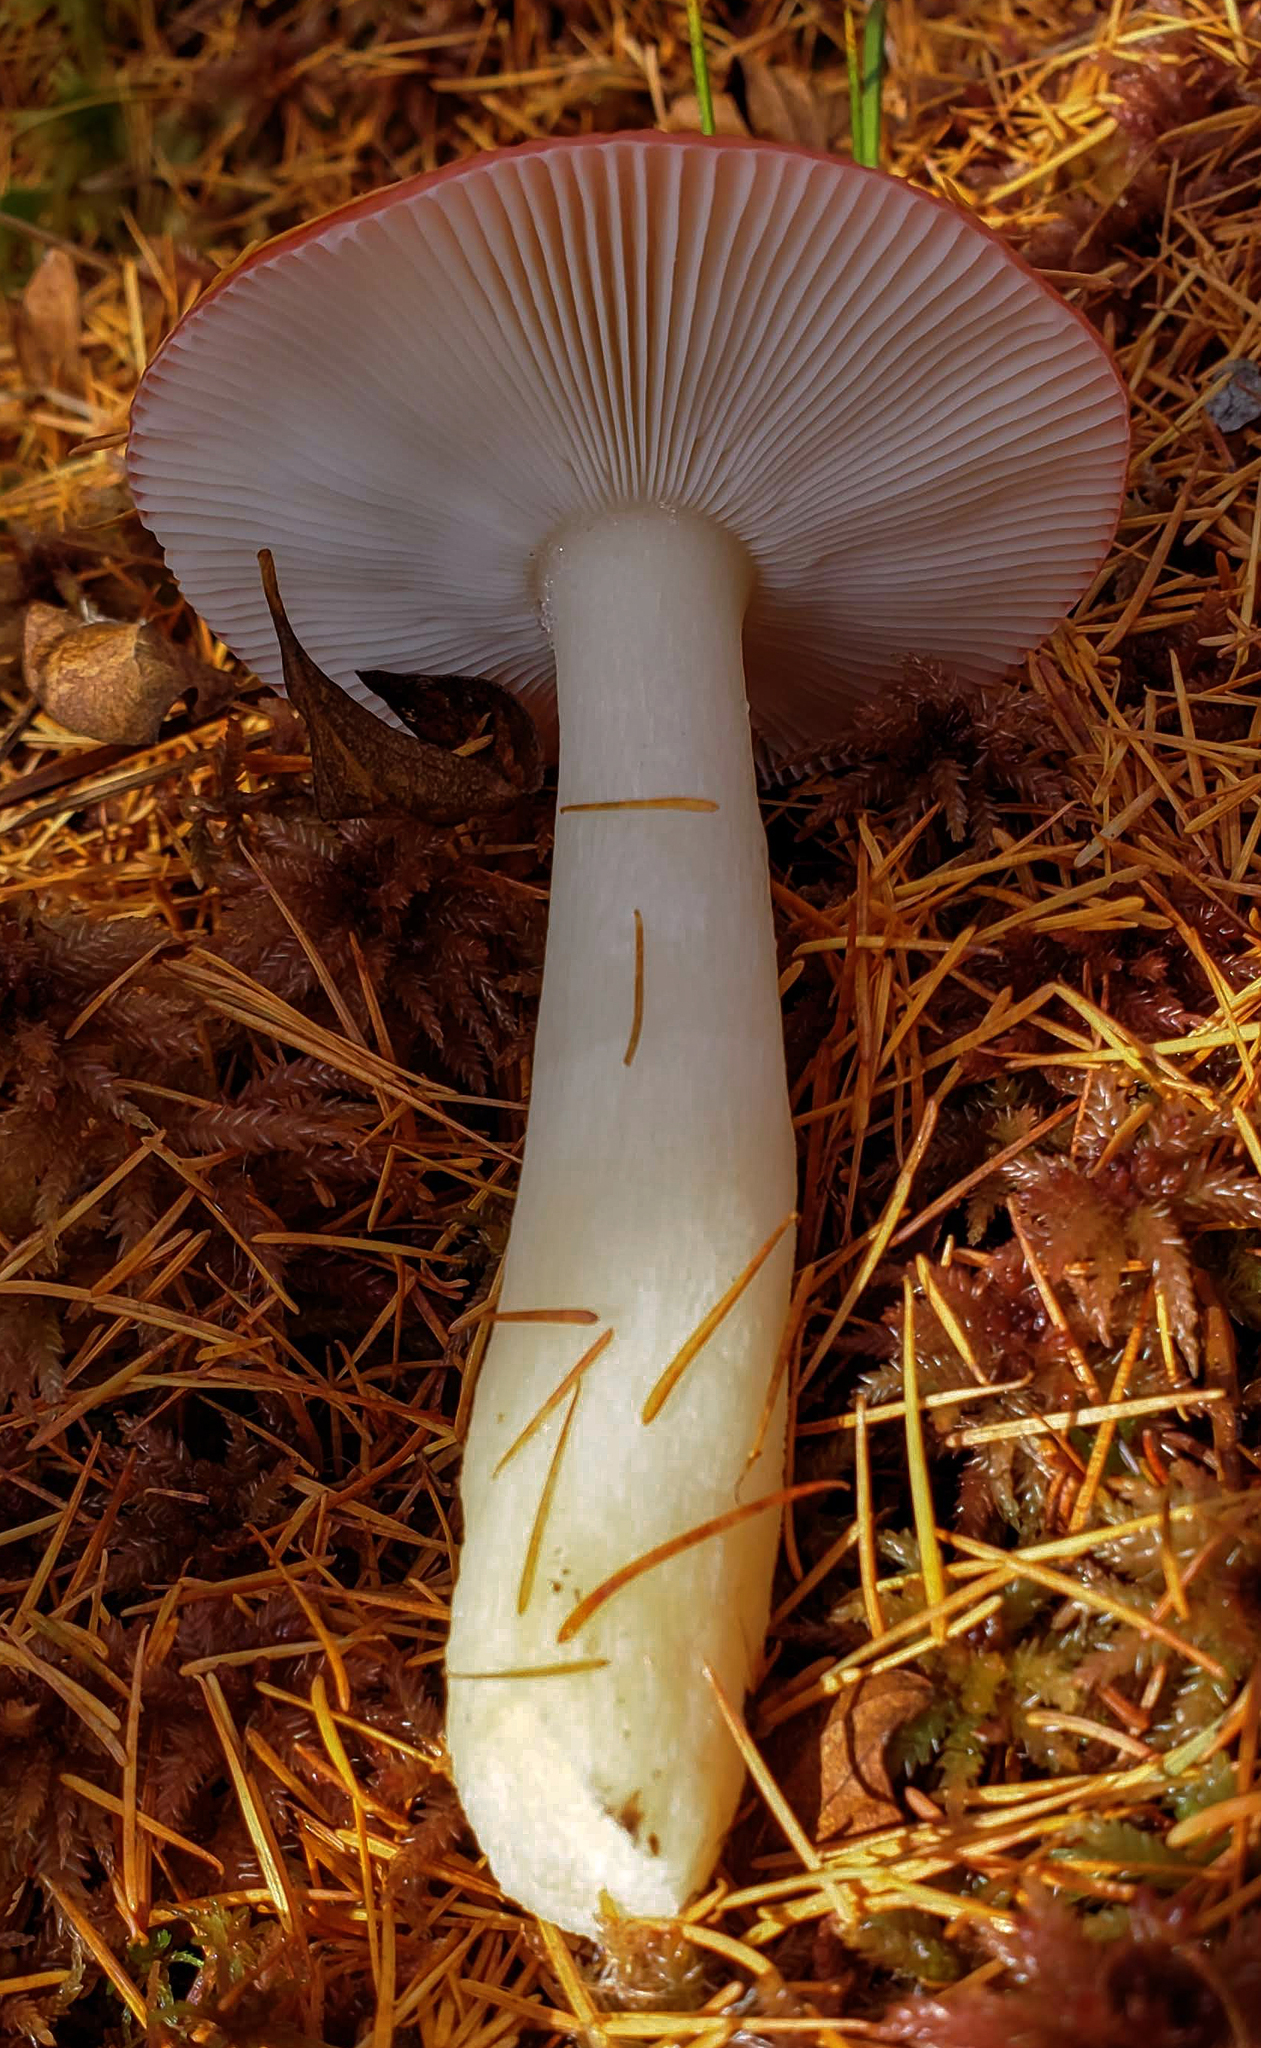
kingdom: Fungi
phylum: Basidiomycota
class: Agaricomycetes
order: Russulales
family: Russulaceae
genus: Russula
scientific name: Russula
